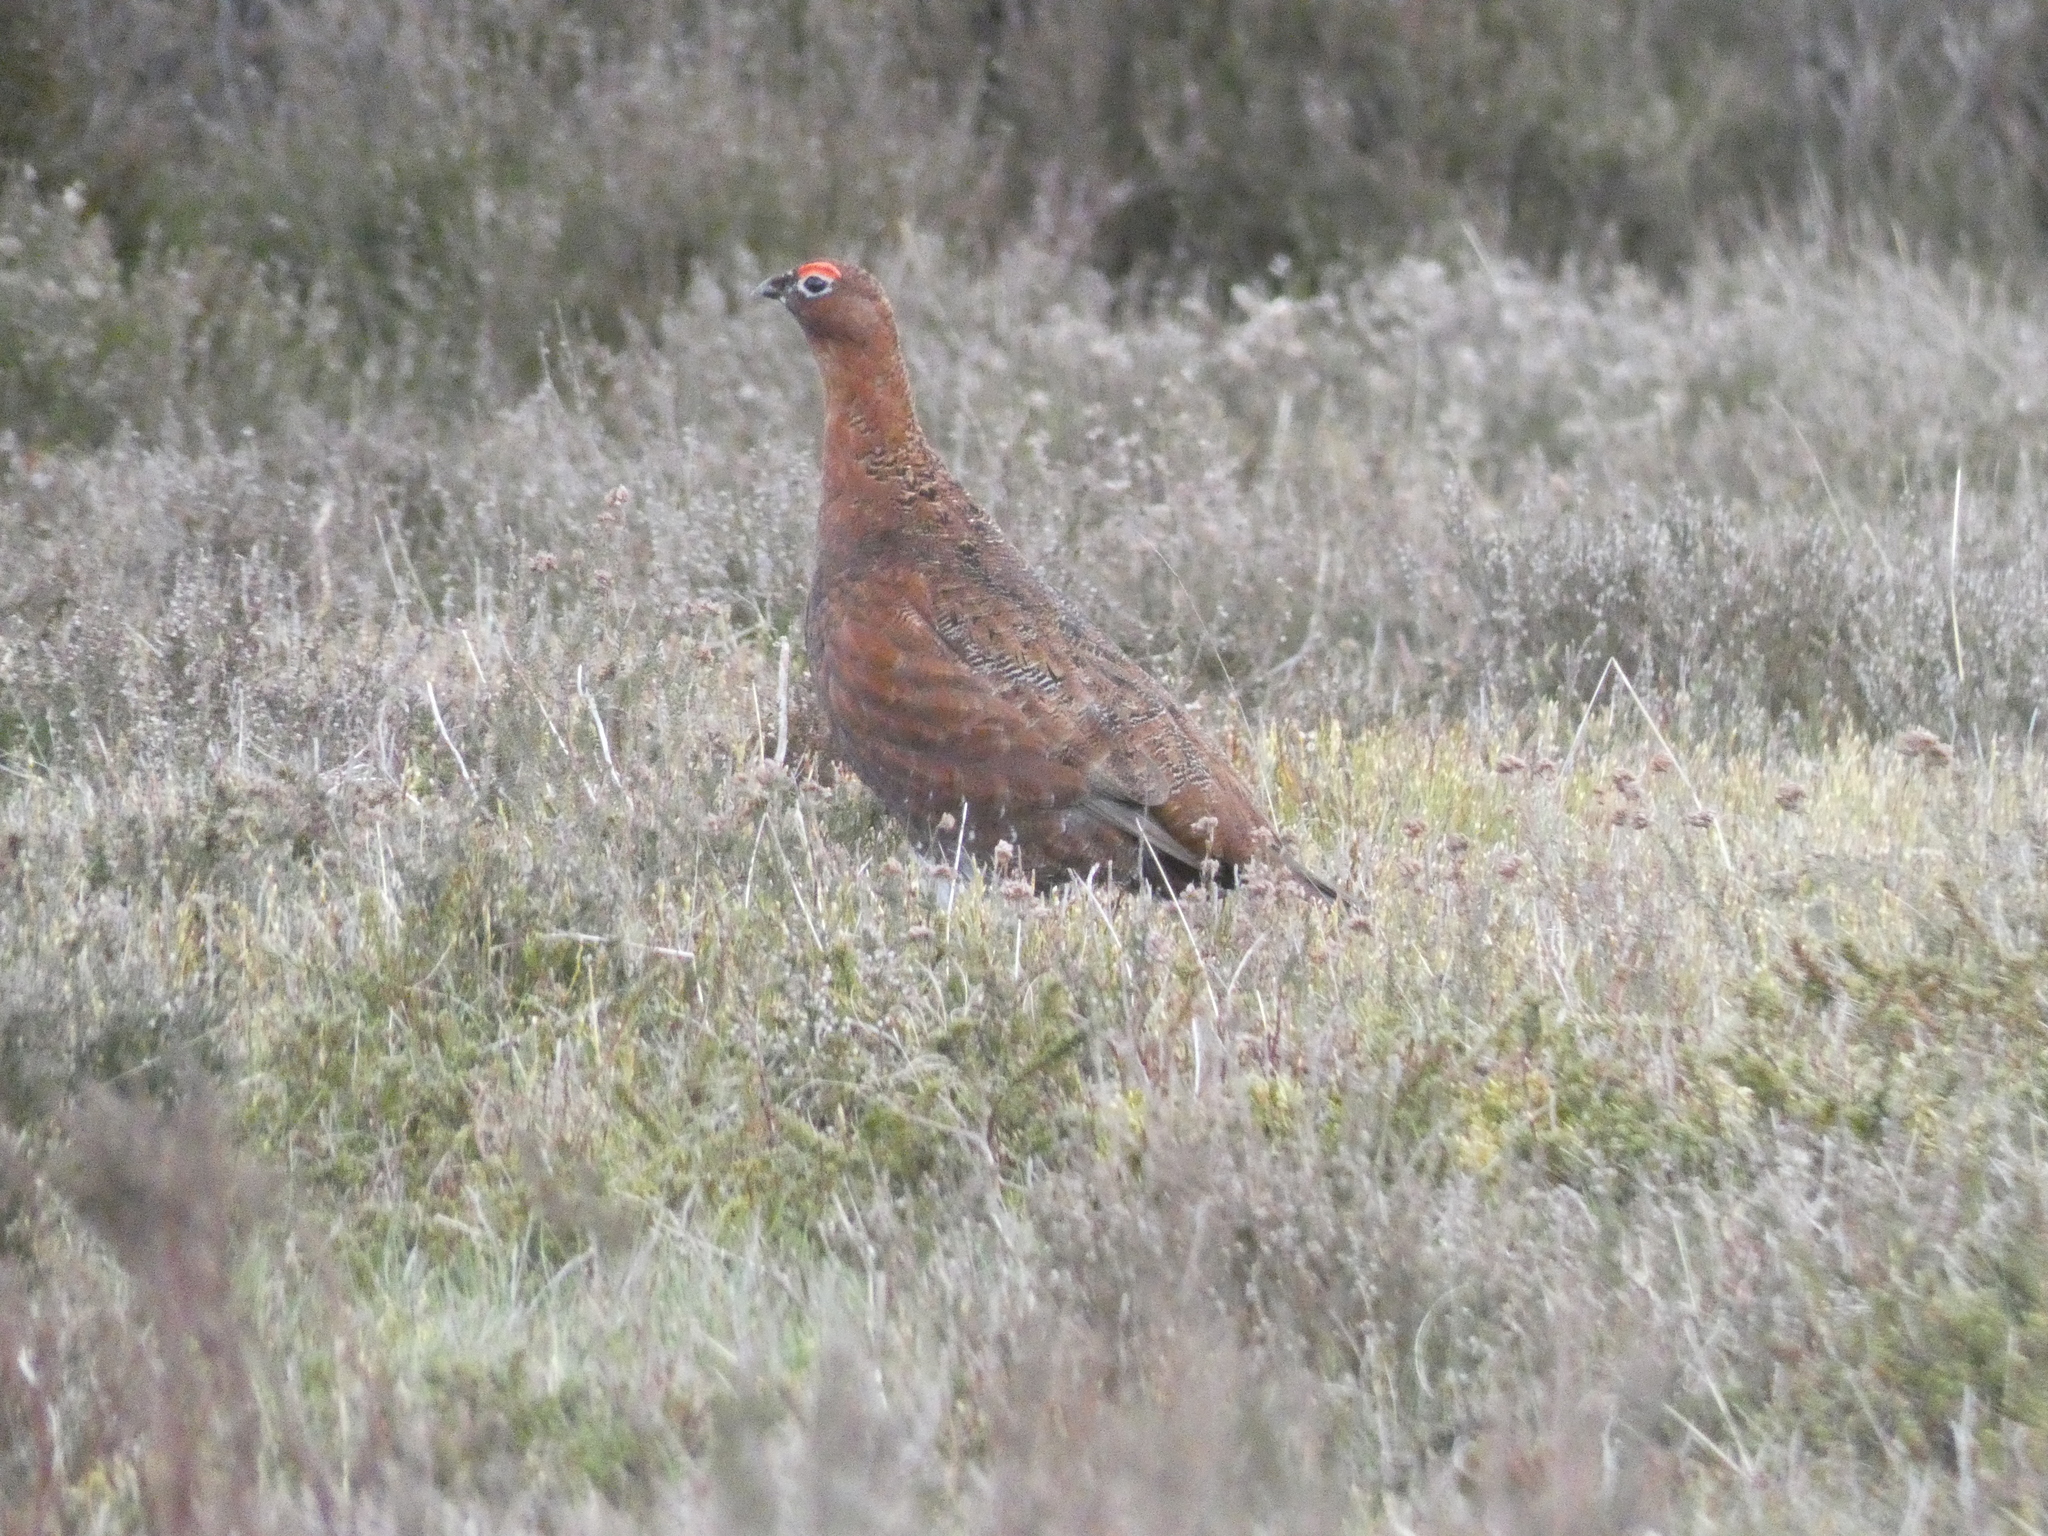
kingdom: Animalia
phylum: Chordata
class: Aves
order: Galliformes
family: Phasianidae
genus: Lagopus
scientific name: Lagopus lagopus
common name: Willow ptarmigan
